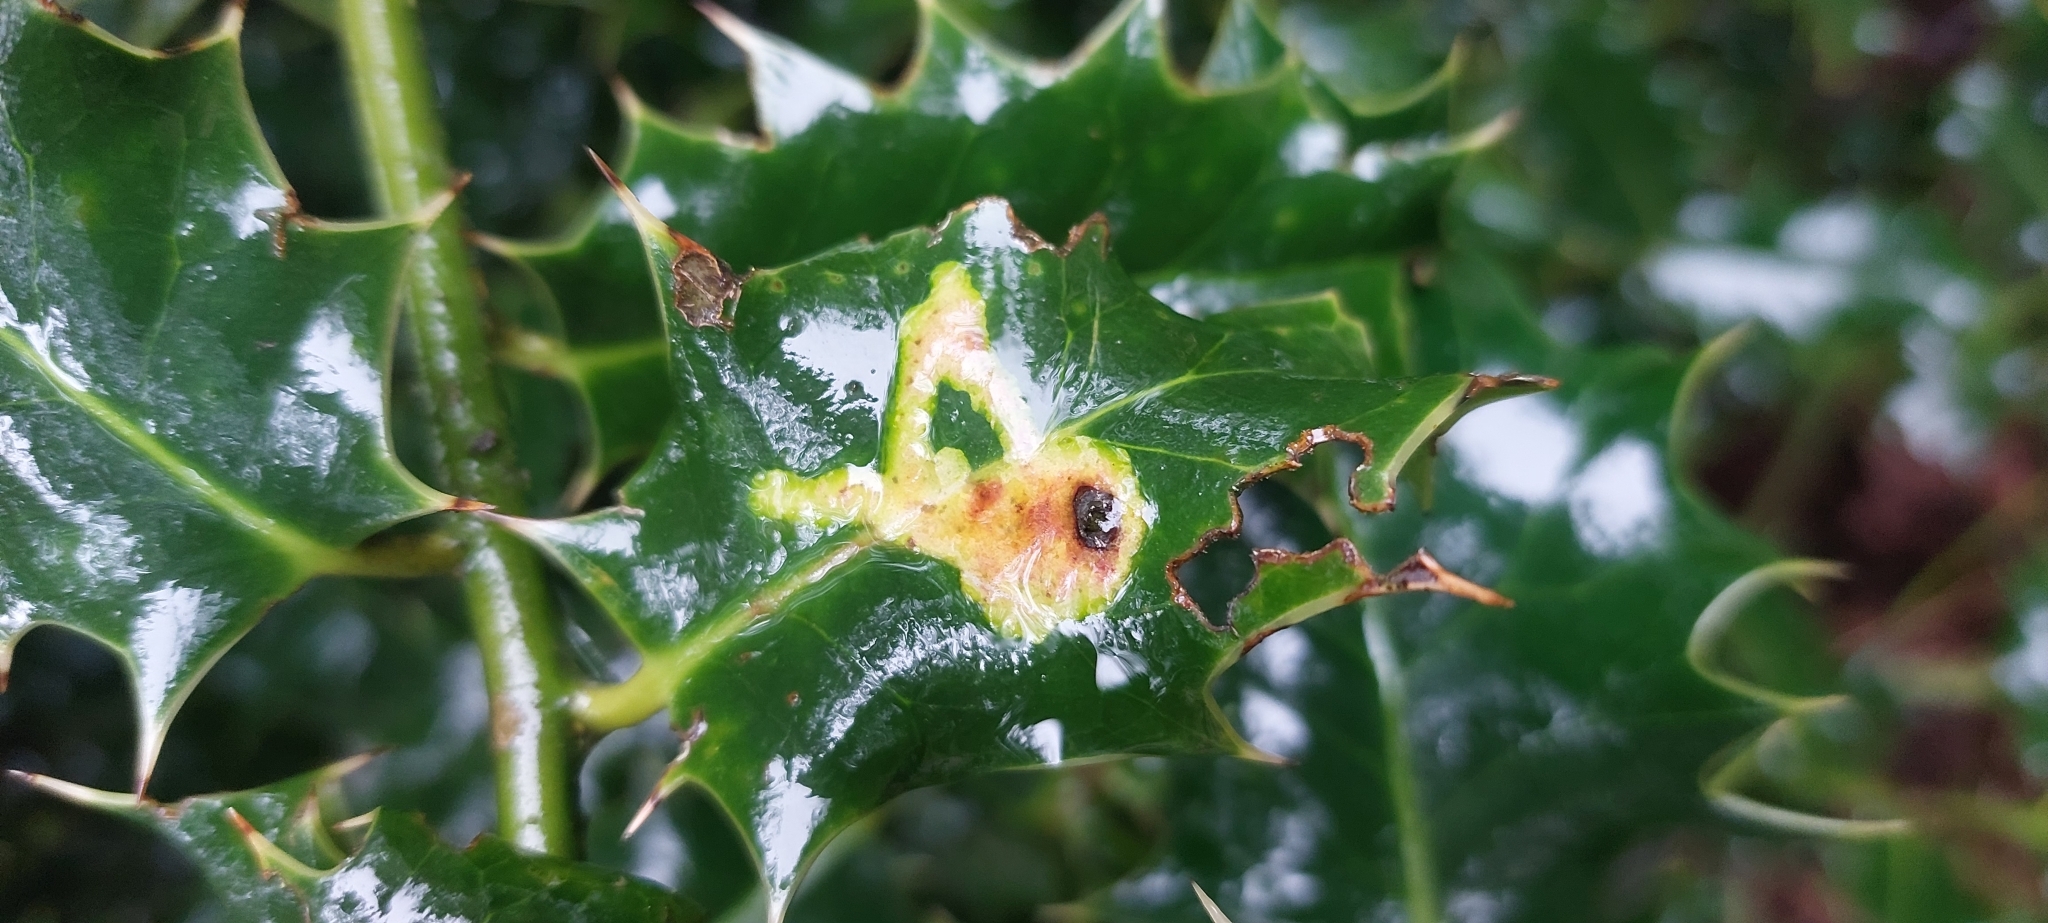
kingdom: Animalia
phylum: Arthropoda
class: Insecta
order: Diptera
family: Agromyzidae
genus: Phytomyza
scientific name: Phytomyza ilicis
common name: Holly leafminer
